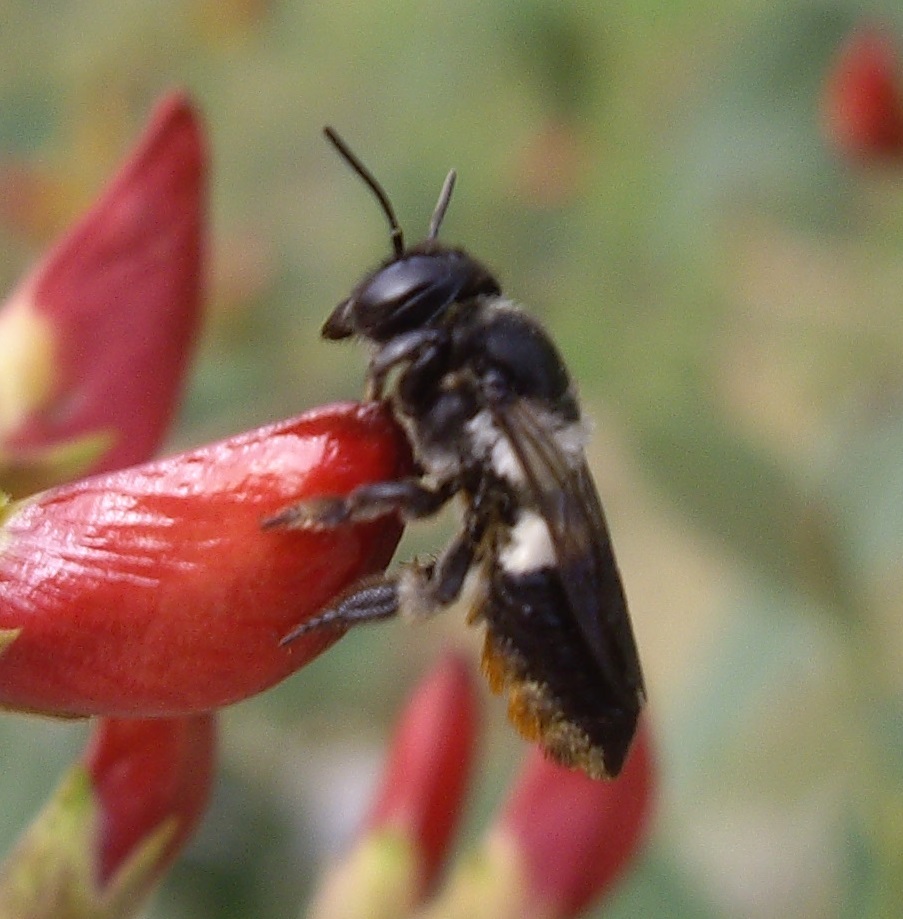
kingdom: Animalia
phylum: Arthropoda
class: Insecta
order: Hymenoptera
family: Megachilidae
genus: Megachile
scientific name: Megachile conjuncta
